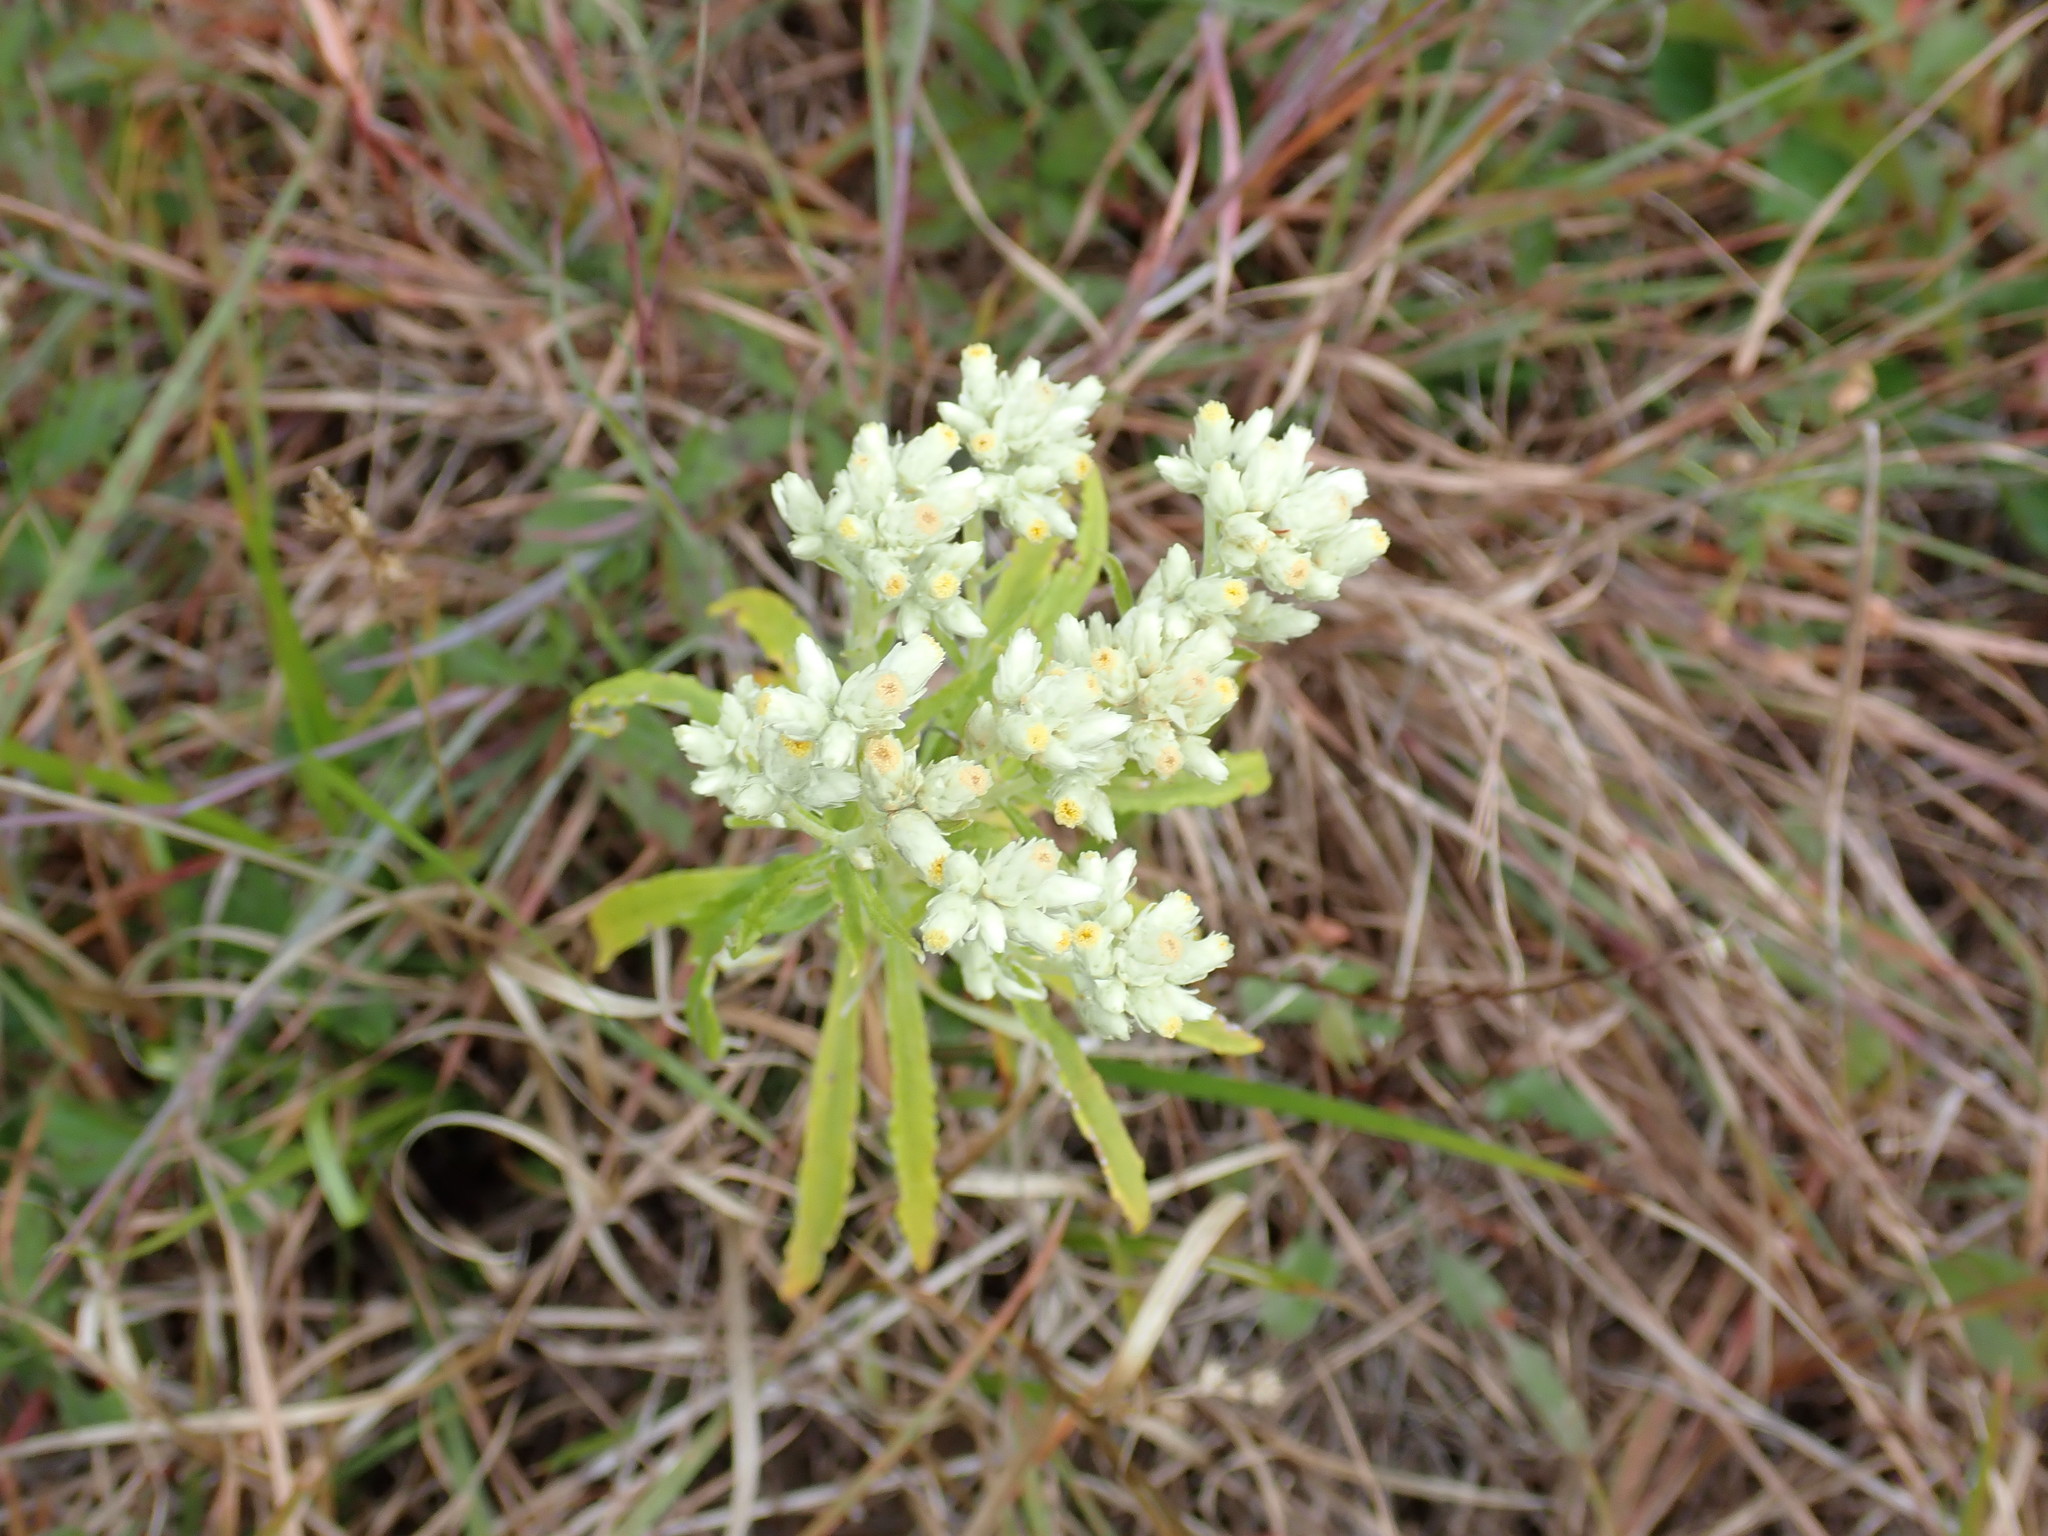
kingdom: Plantae
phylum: Tracheophyta
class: Magnoliopsida
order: Asterales
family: Asteraceae
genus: Pseudognaphalium
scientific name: Pseudognaphalium obtusifolium
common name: Eastern rabbit-tobacco
